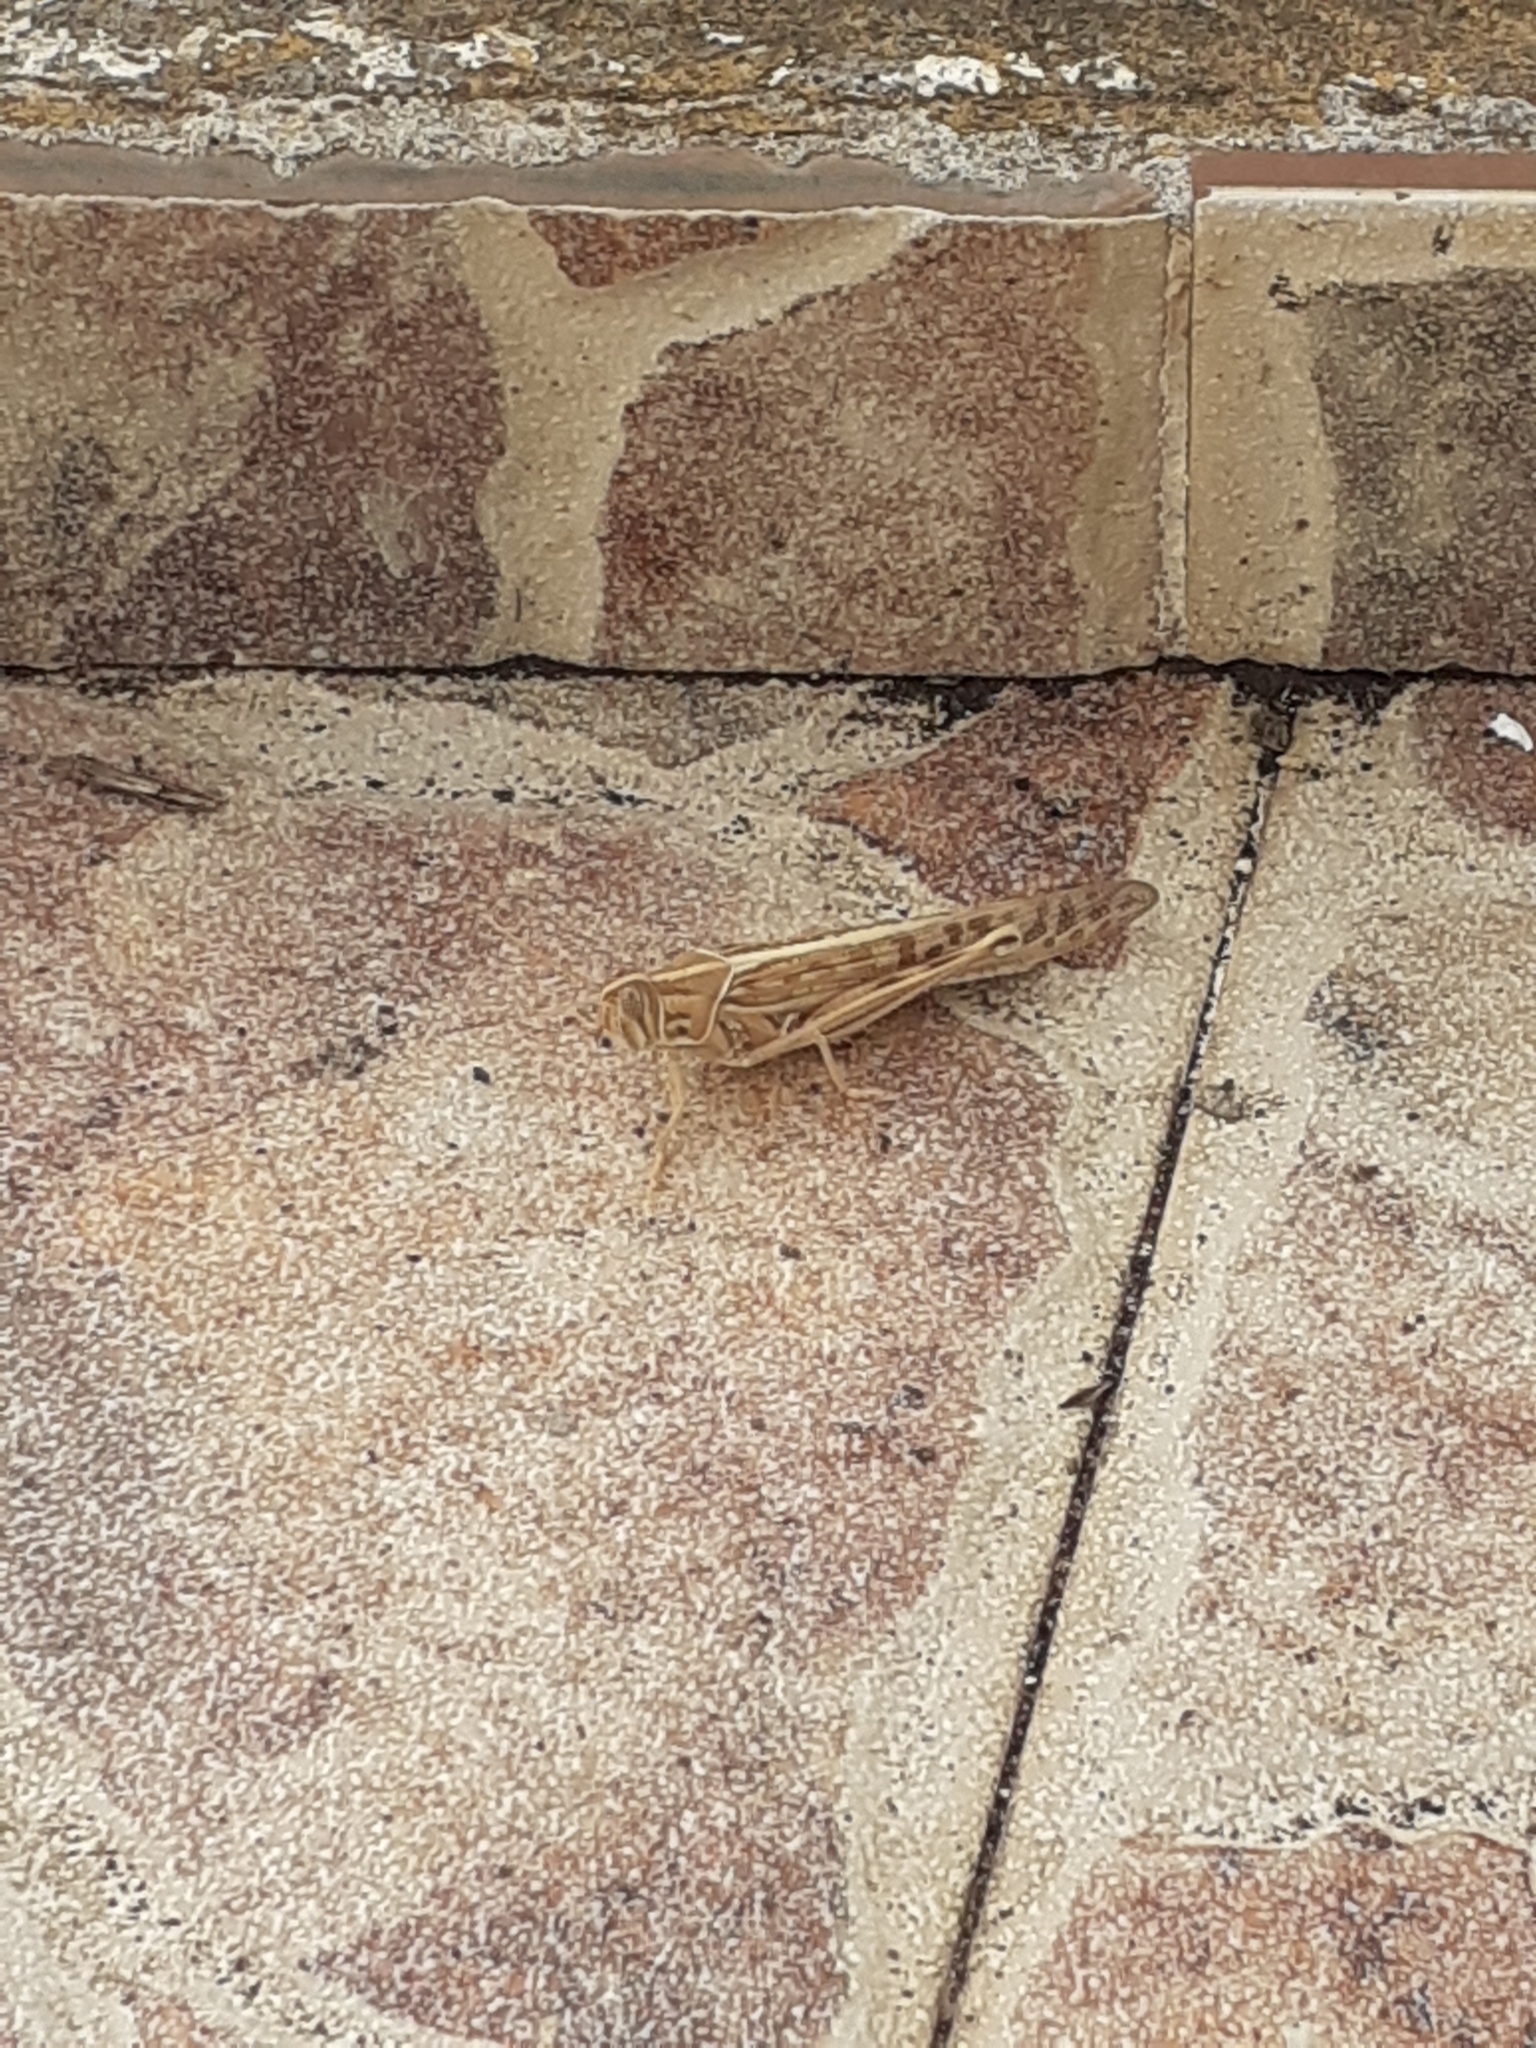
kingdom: Animalia
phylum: Arthropoda
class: Insecta
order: Orthoptera
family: Acrididae
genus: Schistocerca
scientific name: Schistocerca gregaria
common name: Desert locust
